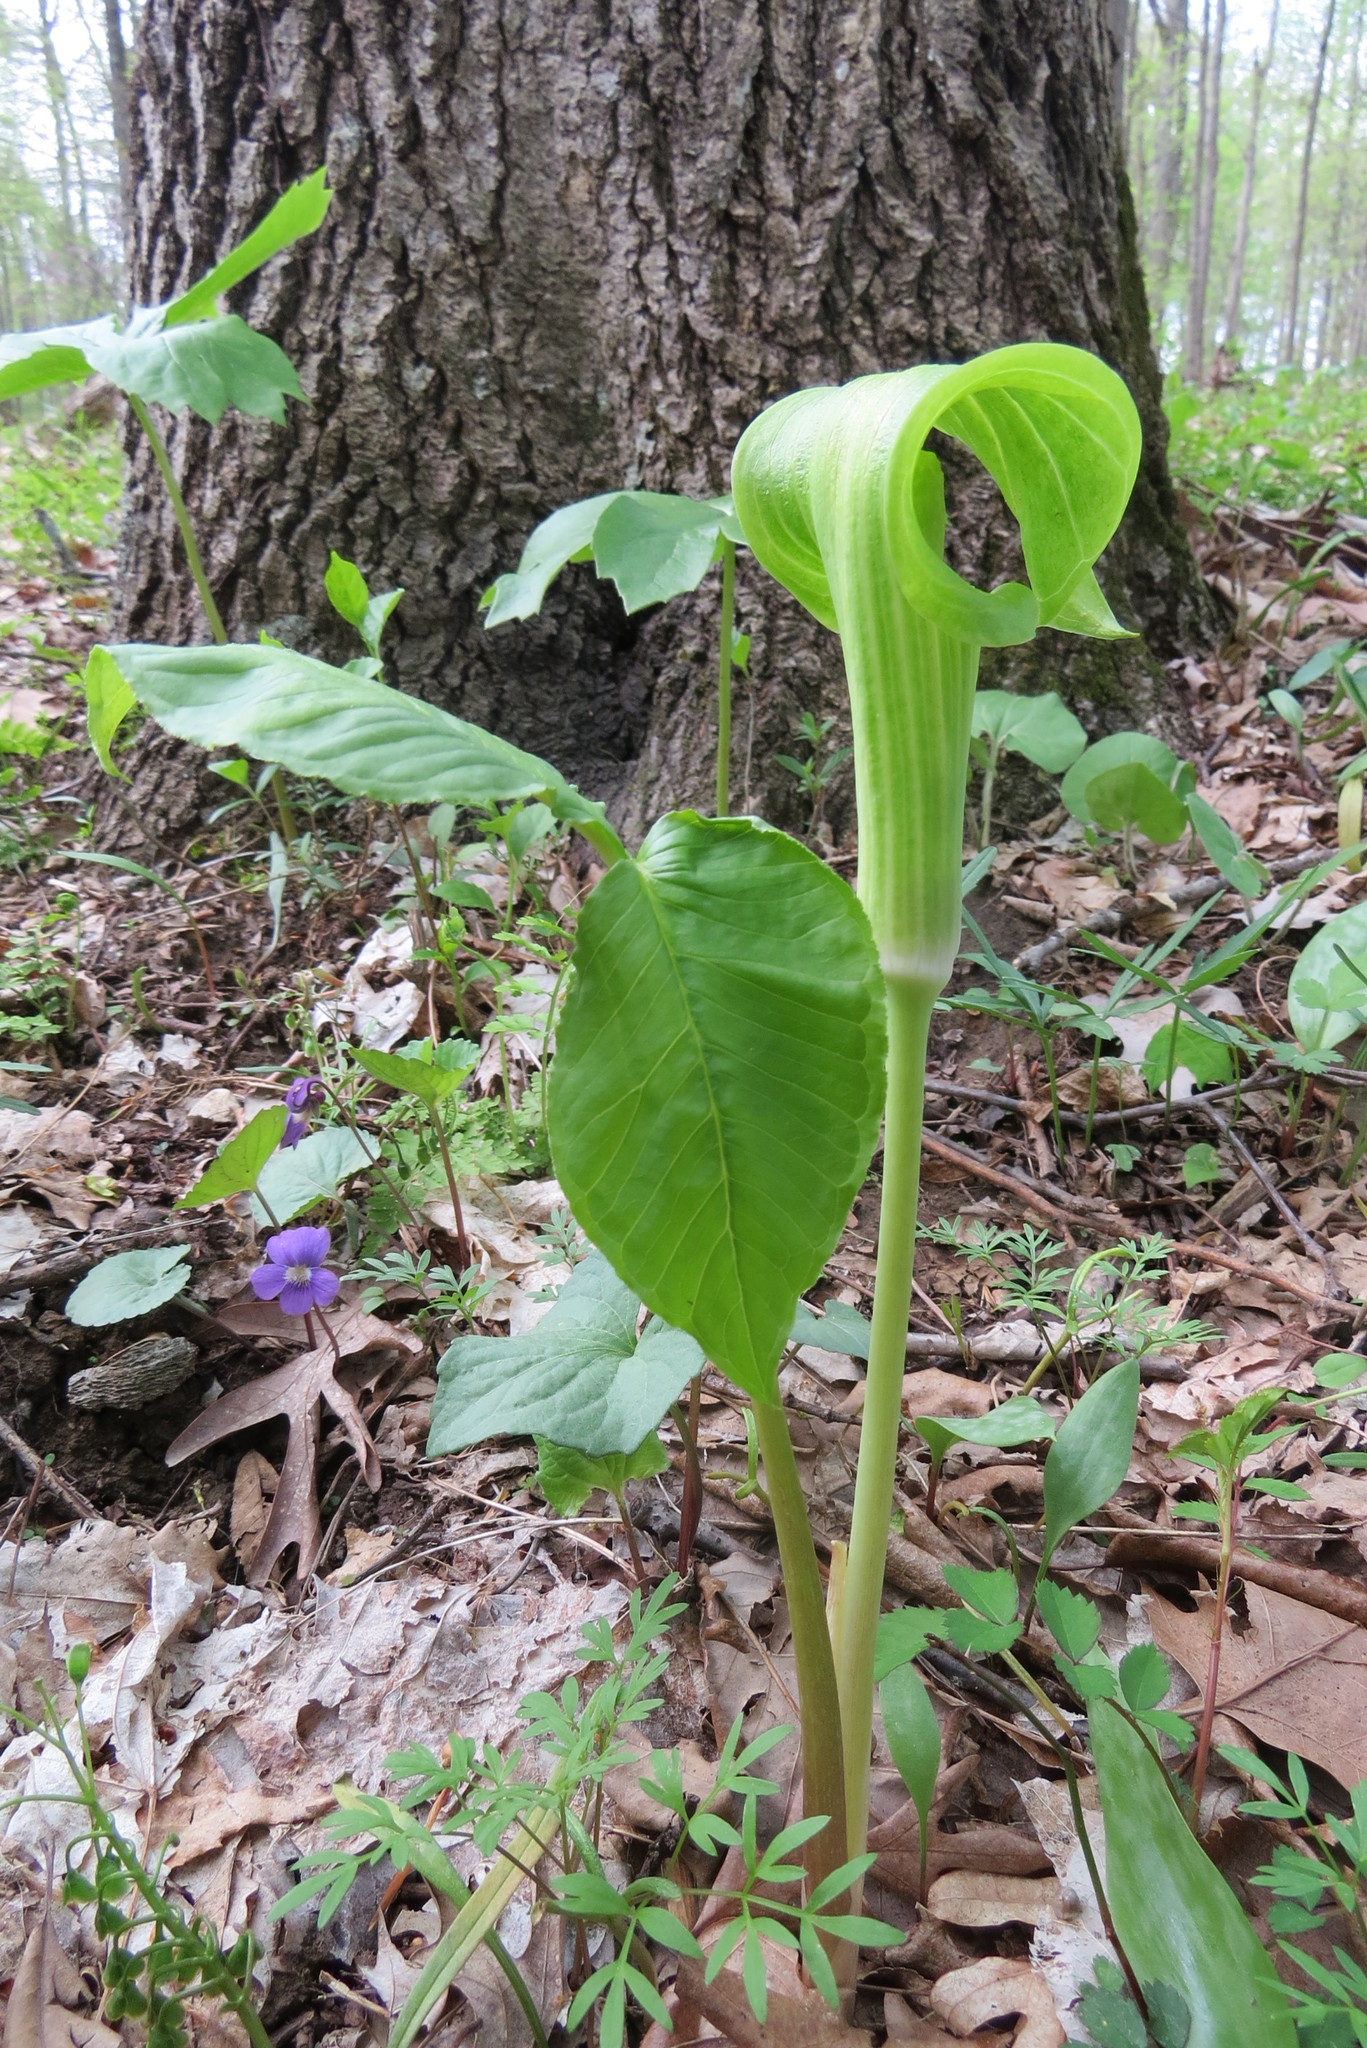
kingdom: Plantae
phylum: Tracheophyta
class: Liliopsida
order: Alismatales
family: Araceae
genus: Arisaema
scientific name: Arisaema triphyllum
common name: Jack-in-the-pulpit
